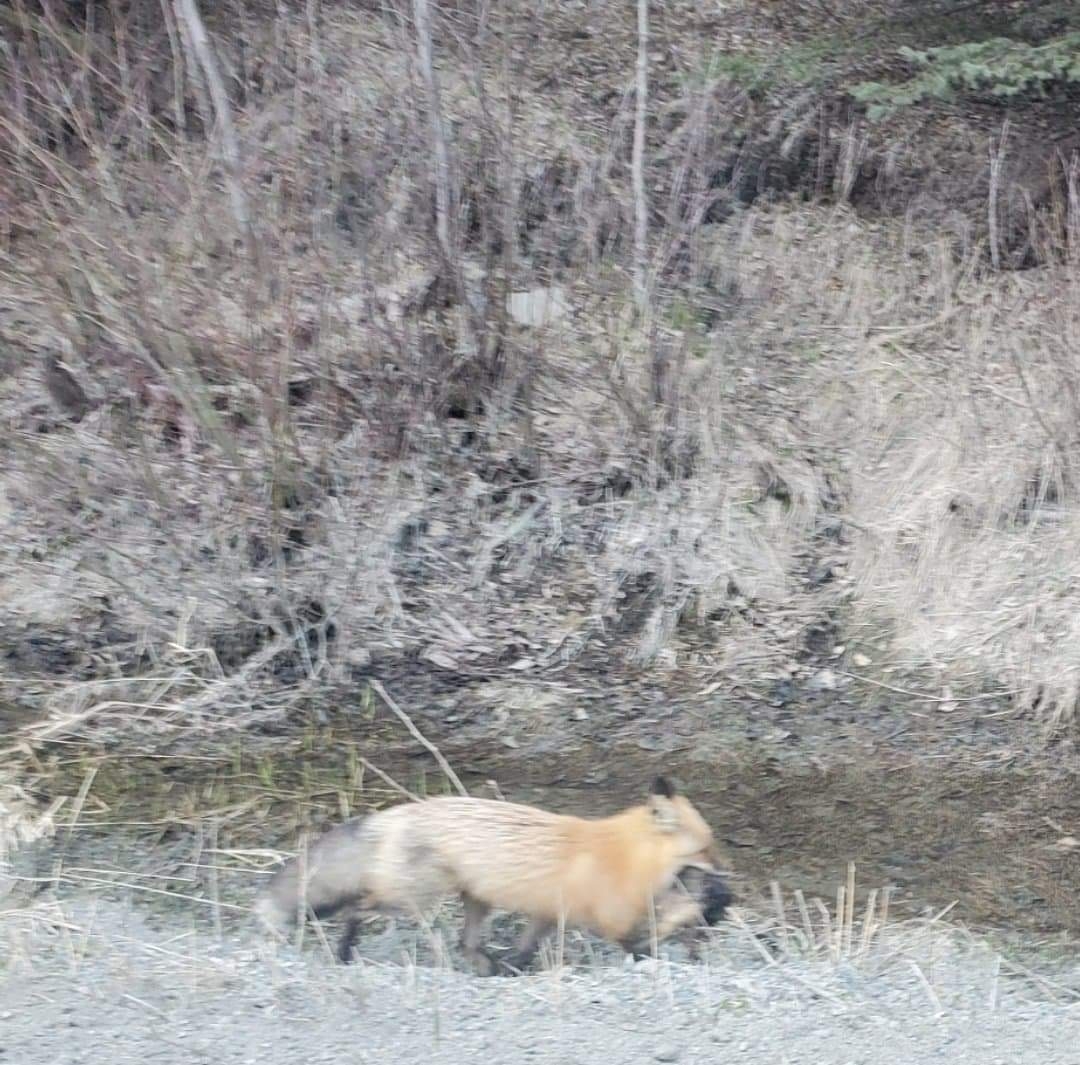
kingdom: Animalia
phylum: Chordata
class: Mammalia
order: Carnivora
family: Canidae
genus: Vulpes
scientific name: Vulpes vulpes
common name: Red fox
